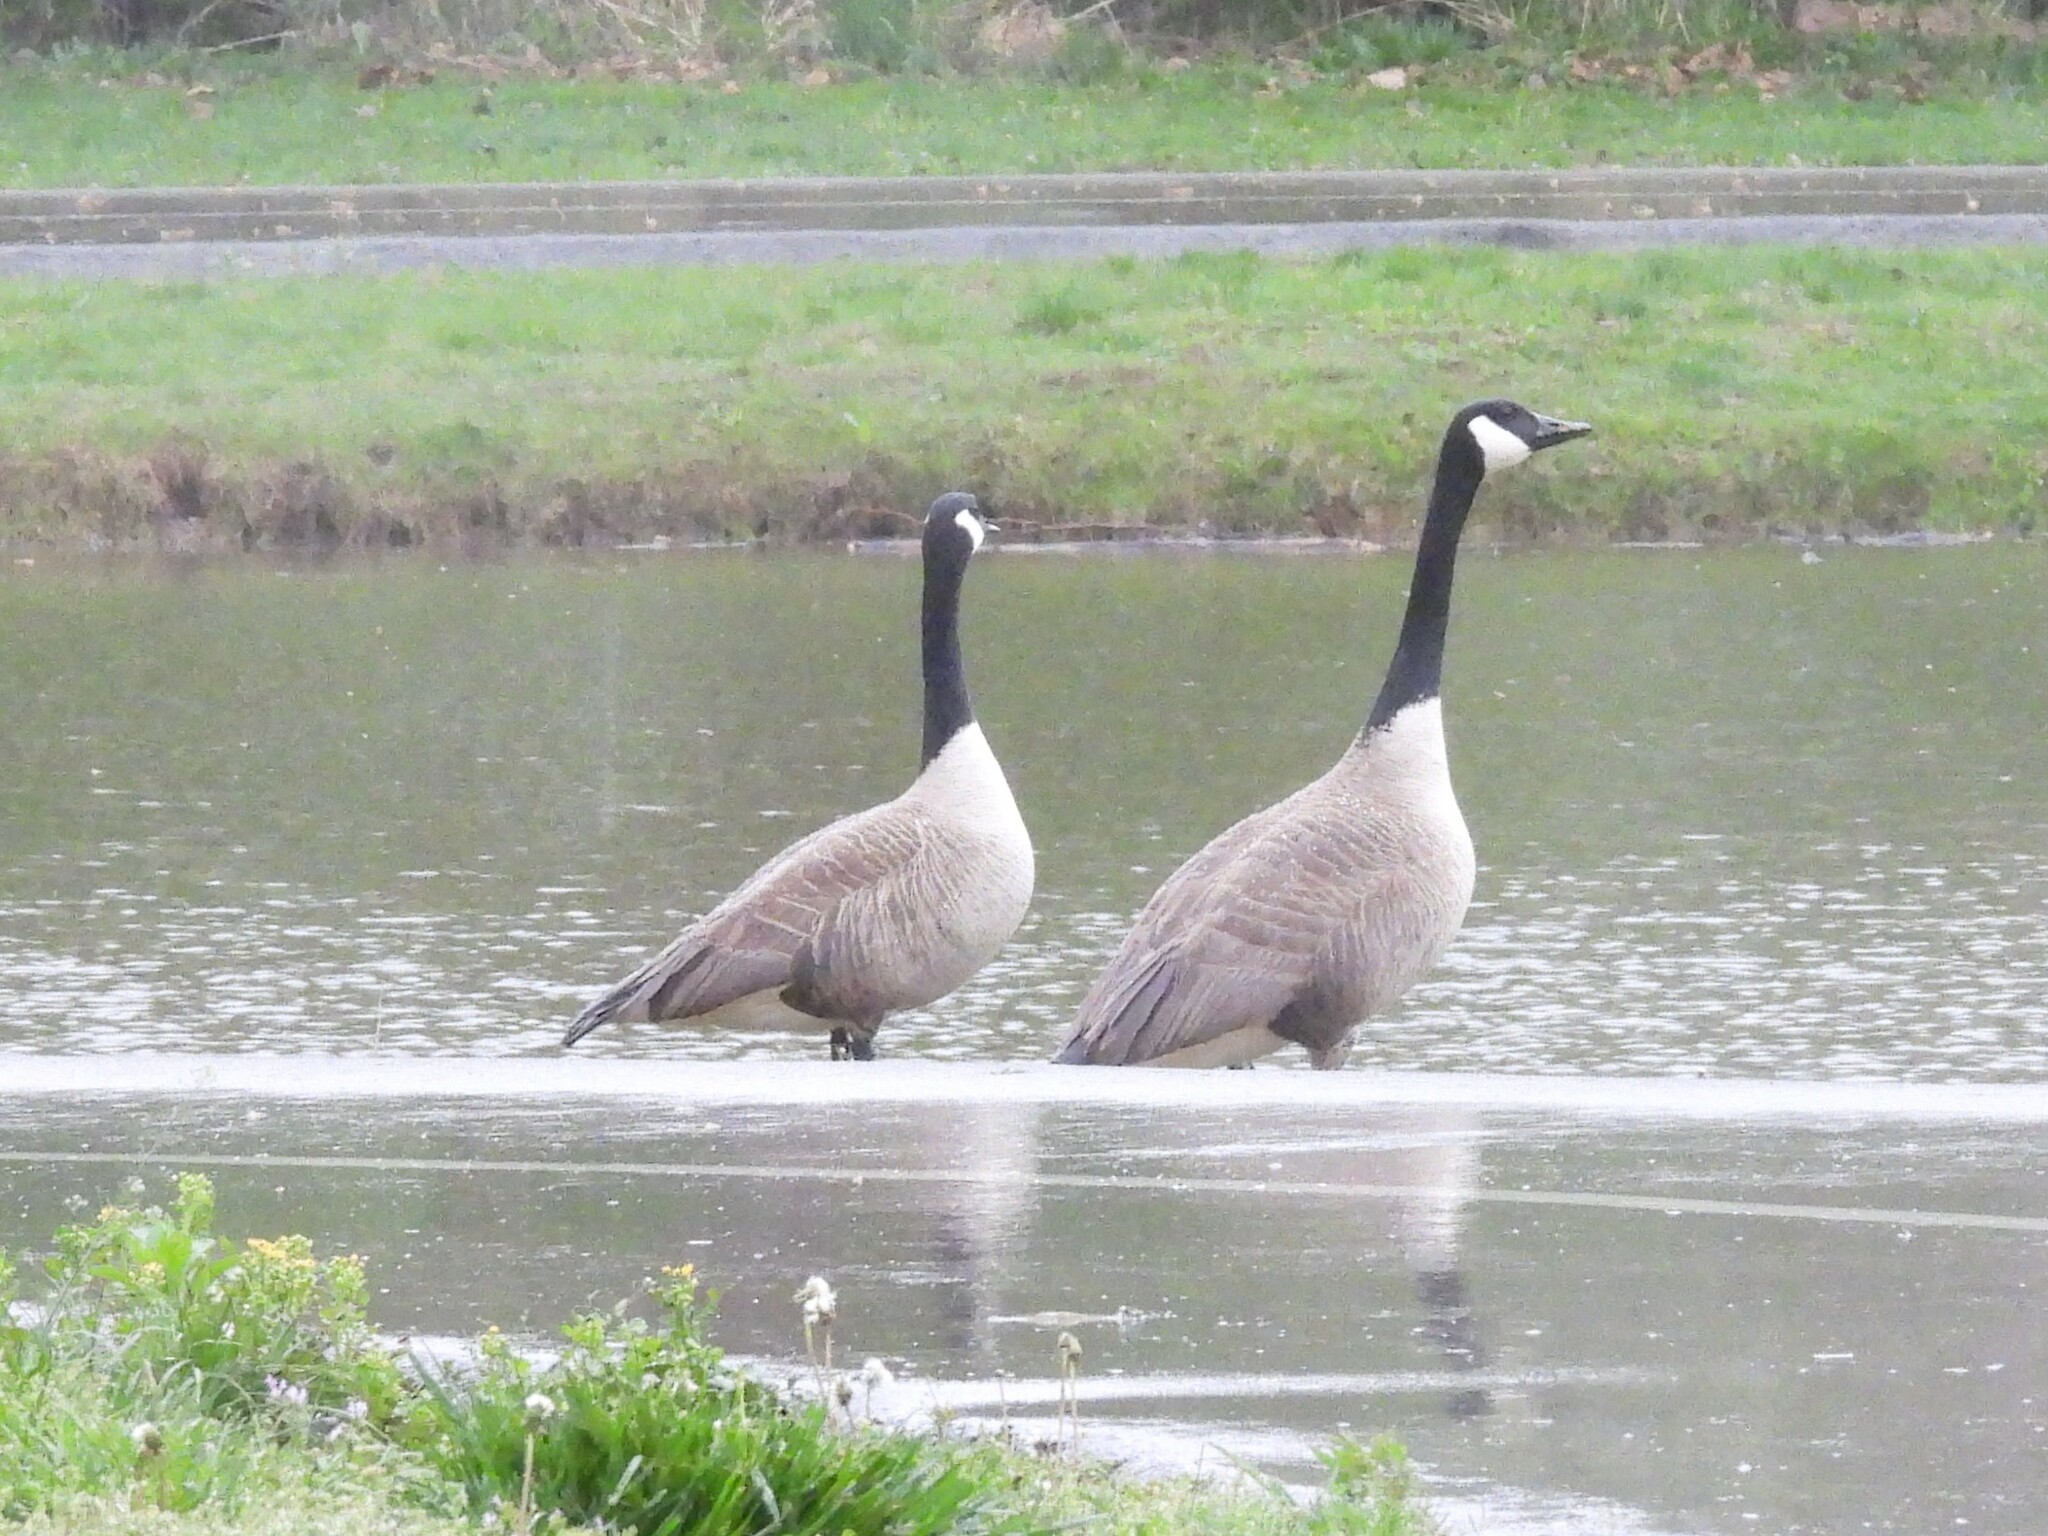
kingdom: Animalia
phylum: Chordata
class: Aves
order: Anseriformes
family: Anatidae
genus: Branta
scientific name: Branta canadensis
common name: Canada goose
